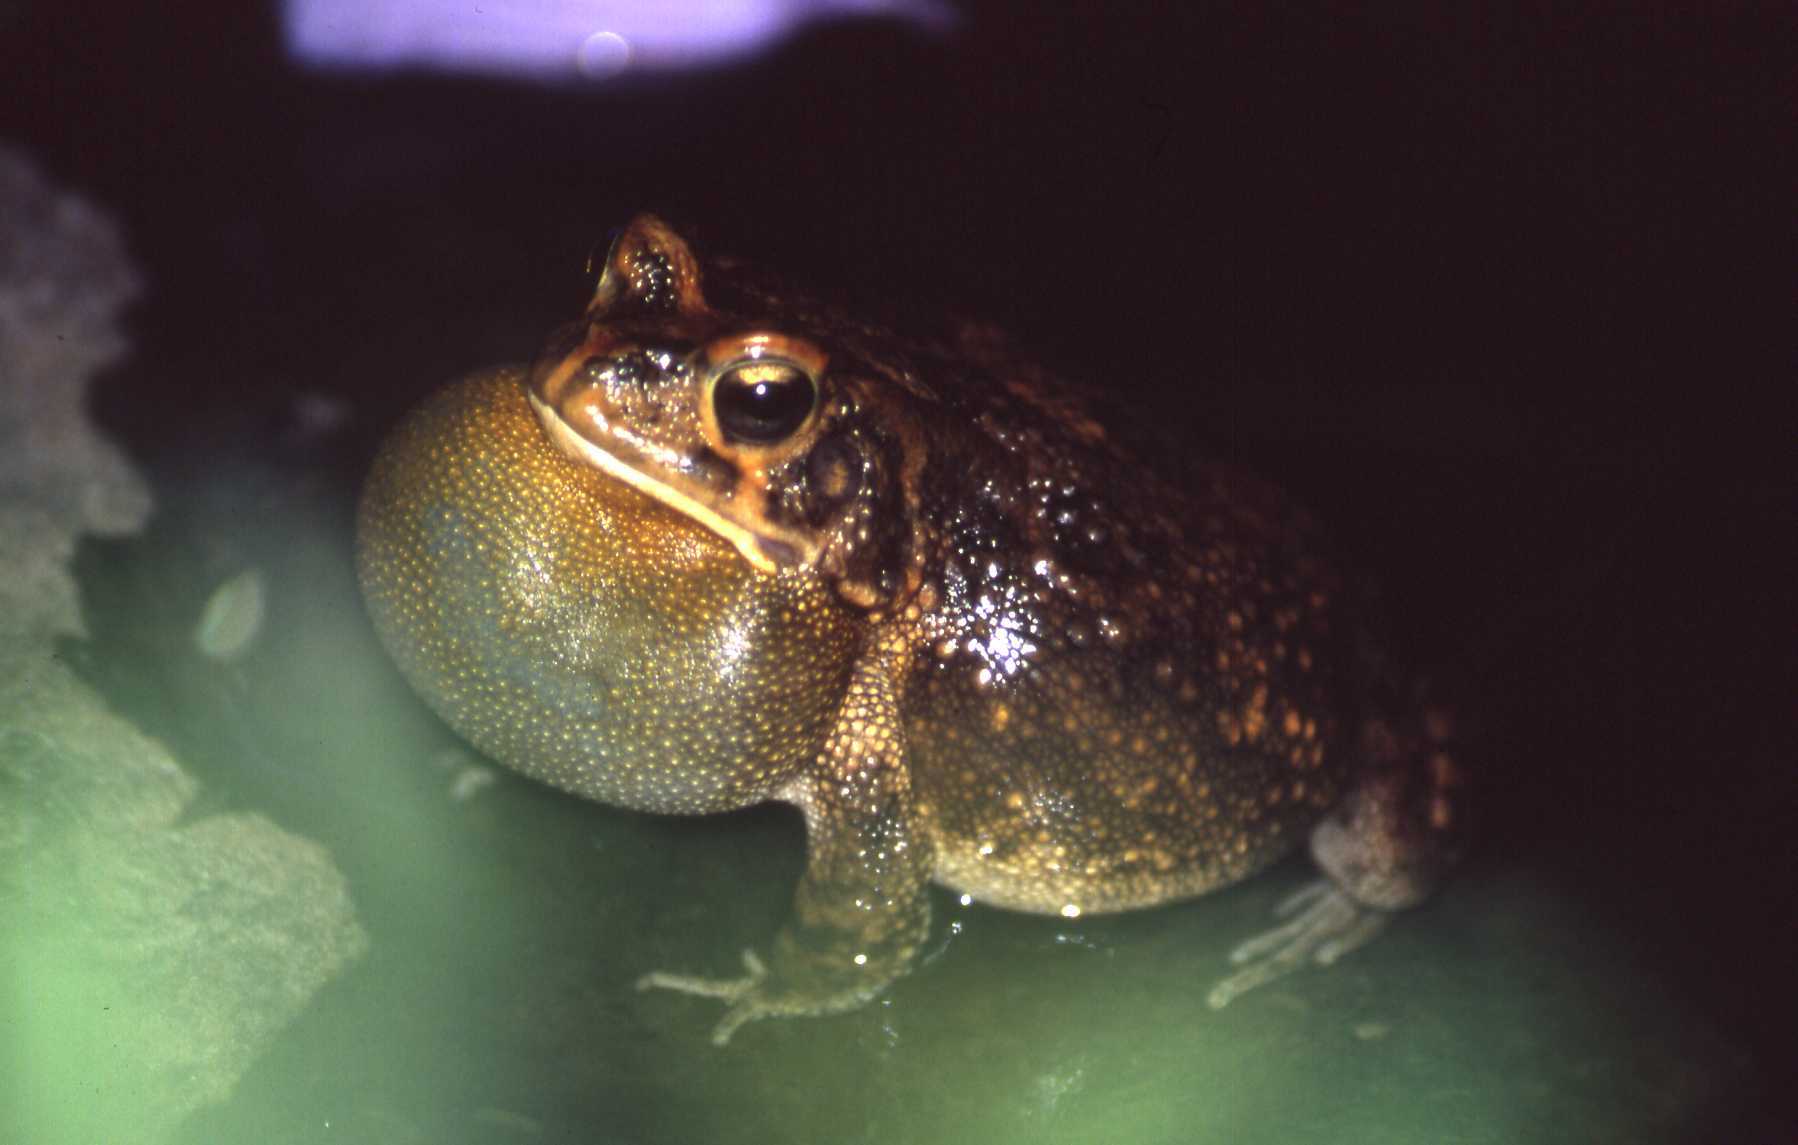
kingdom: Animalia
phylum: Chordata
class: Amphibia
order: Anura
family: Bufonidae
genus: Sclerophrys
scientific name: Sclerophrys garmani
